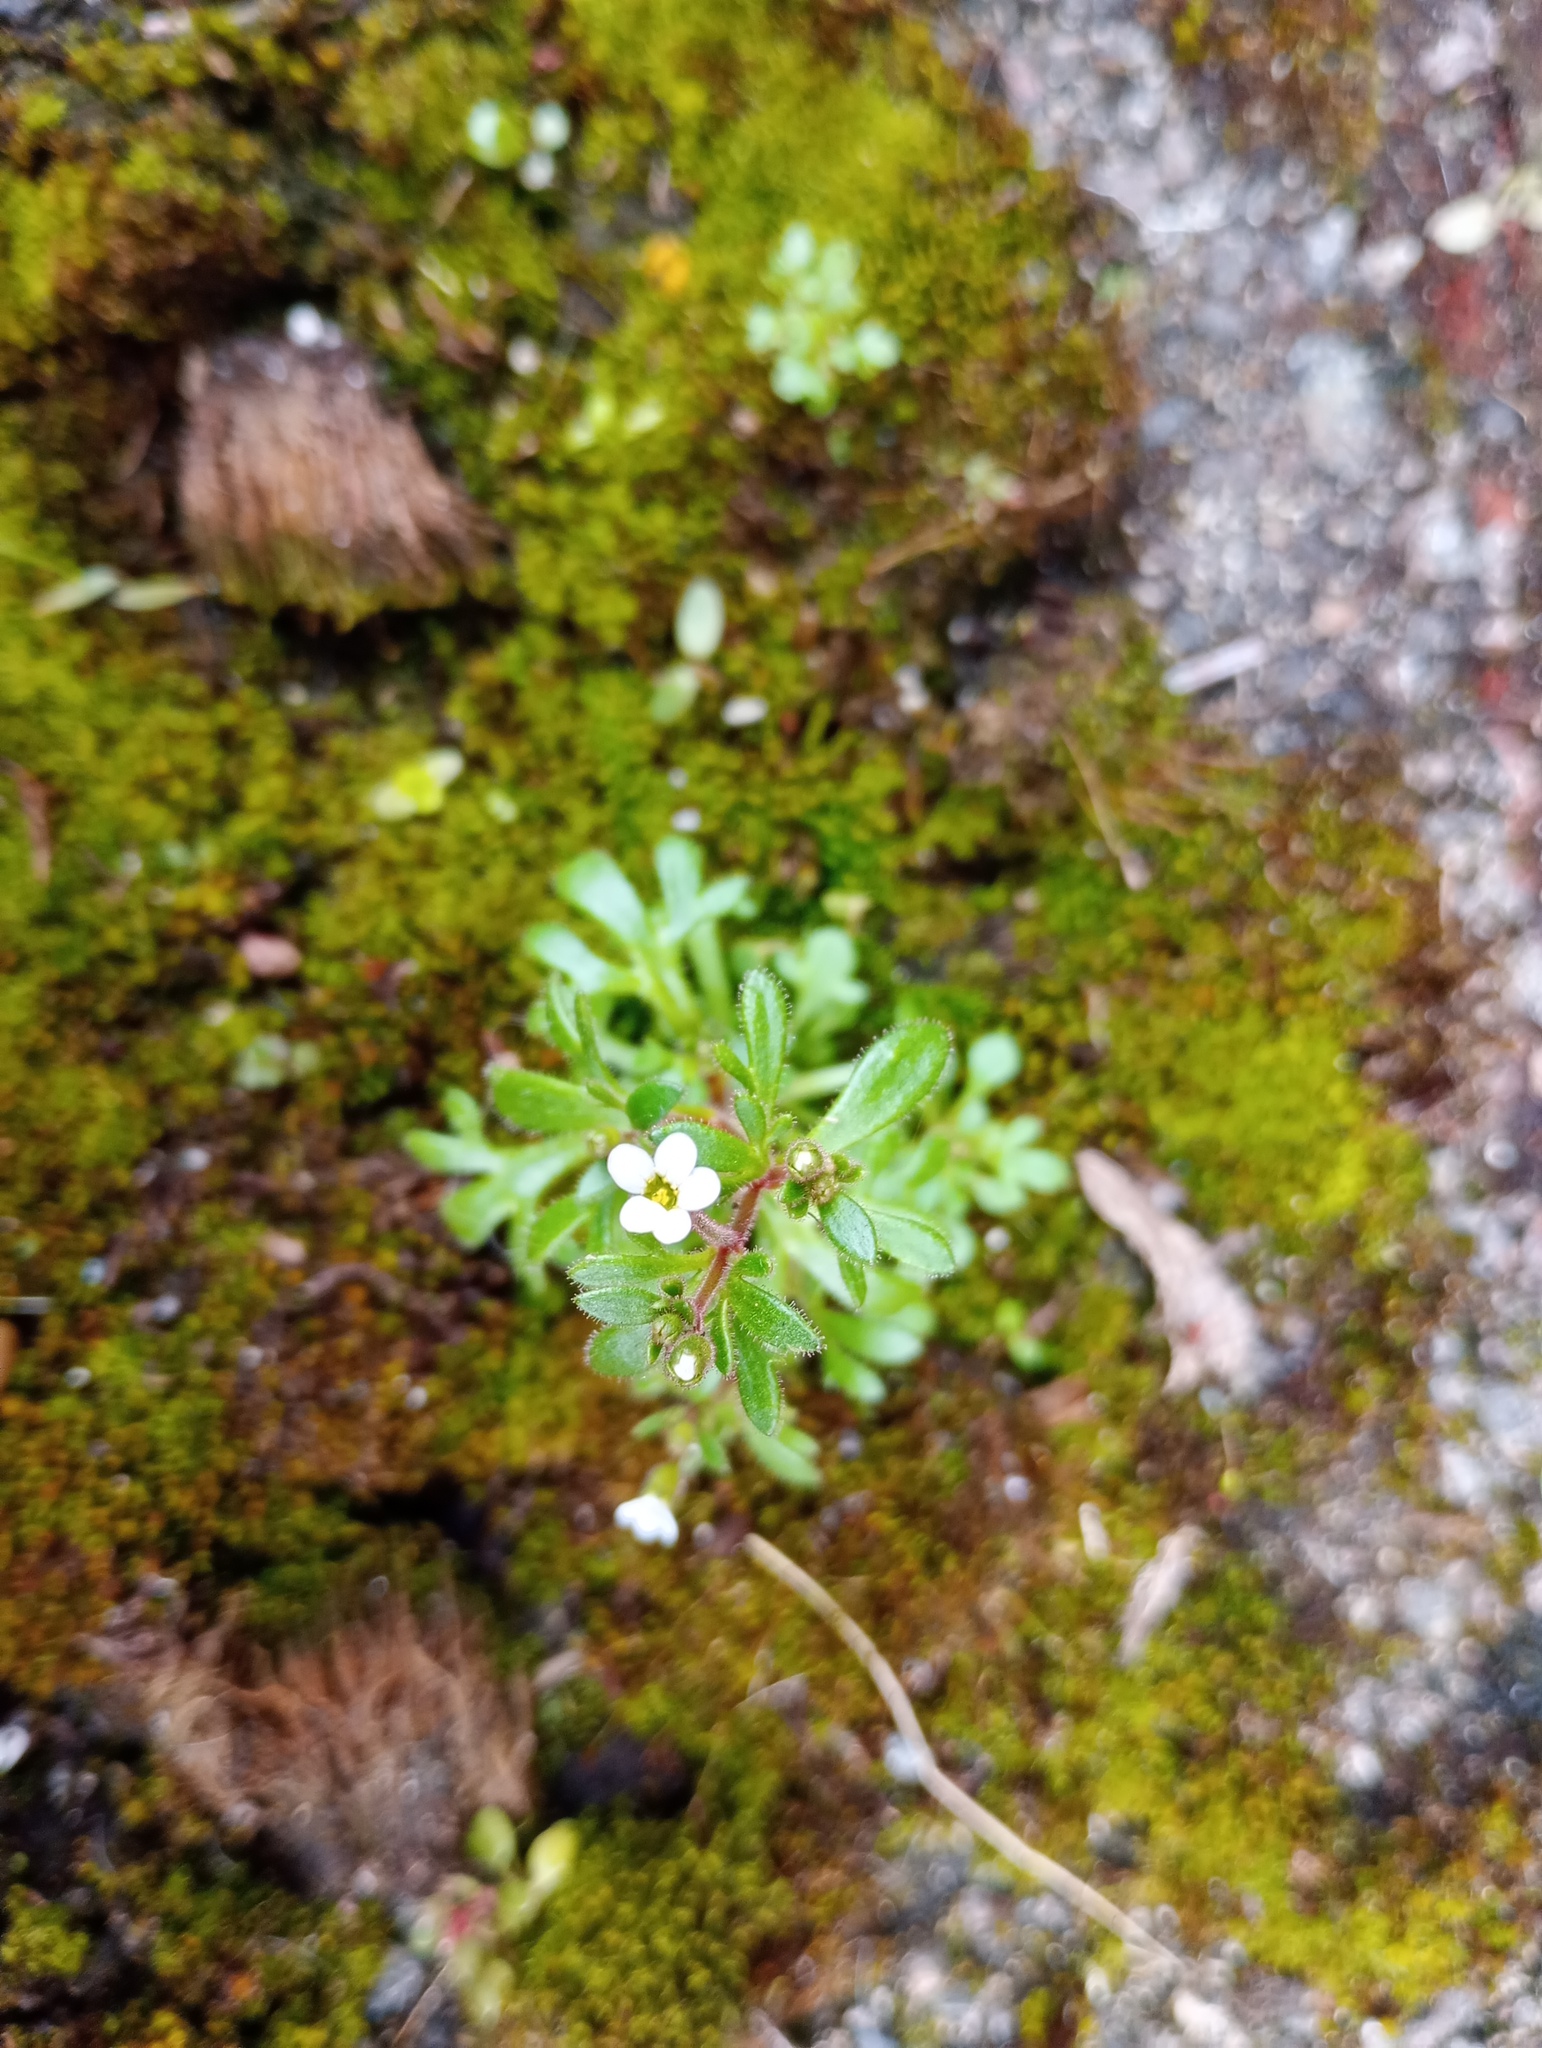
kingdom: Plantae
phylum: Tracheophyta
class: Magnoliopsida
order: Saxifragales
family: Saxifragaceae
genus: Saxifraga
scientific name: Saxifraga tridactylites
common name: Rue-leaved saxifrage
